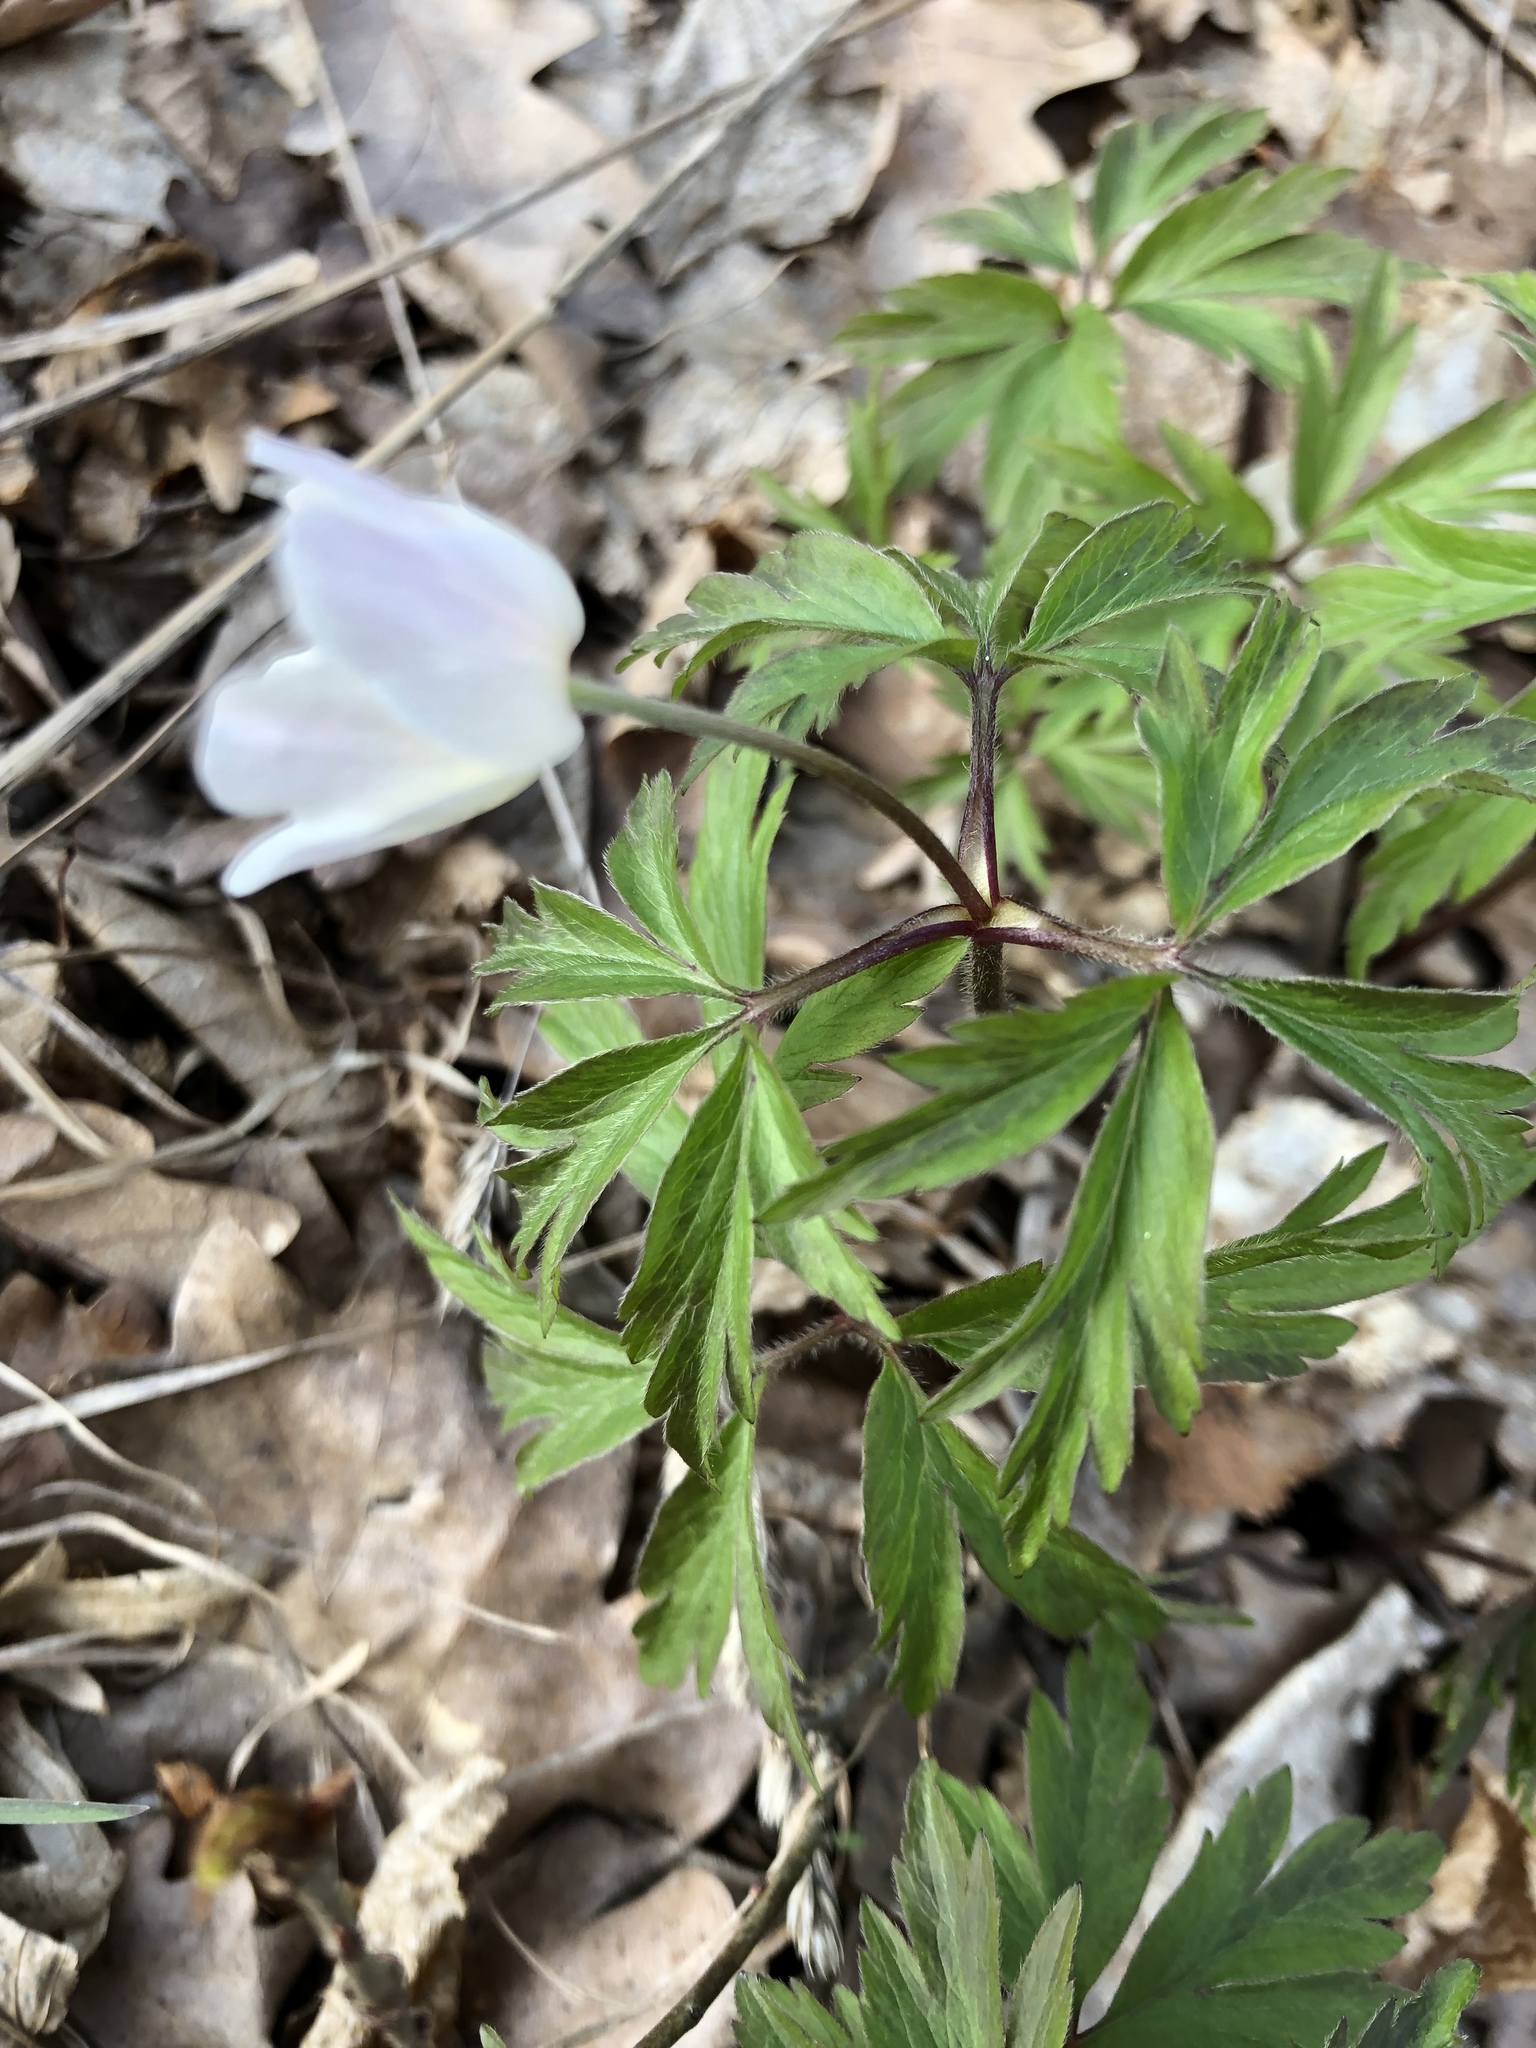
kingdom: Plantae
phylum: Tracheophyta
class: Magnoliopsida
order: Ranunculales
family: Ranunculaceae
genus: Anemone
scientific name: Anemone nemorosa
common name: Wood anemone
